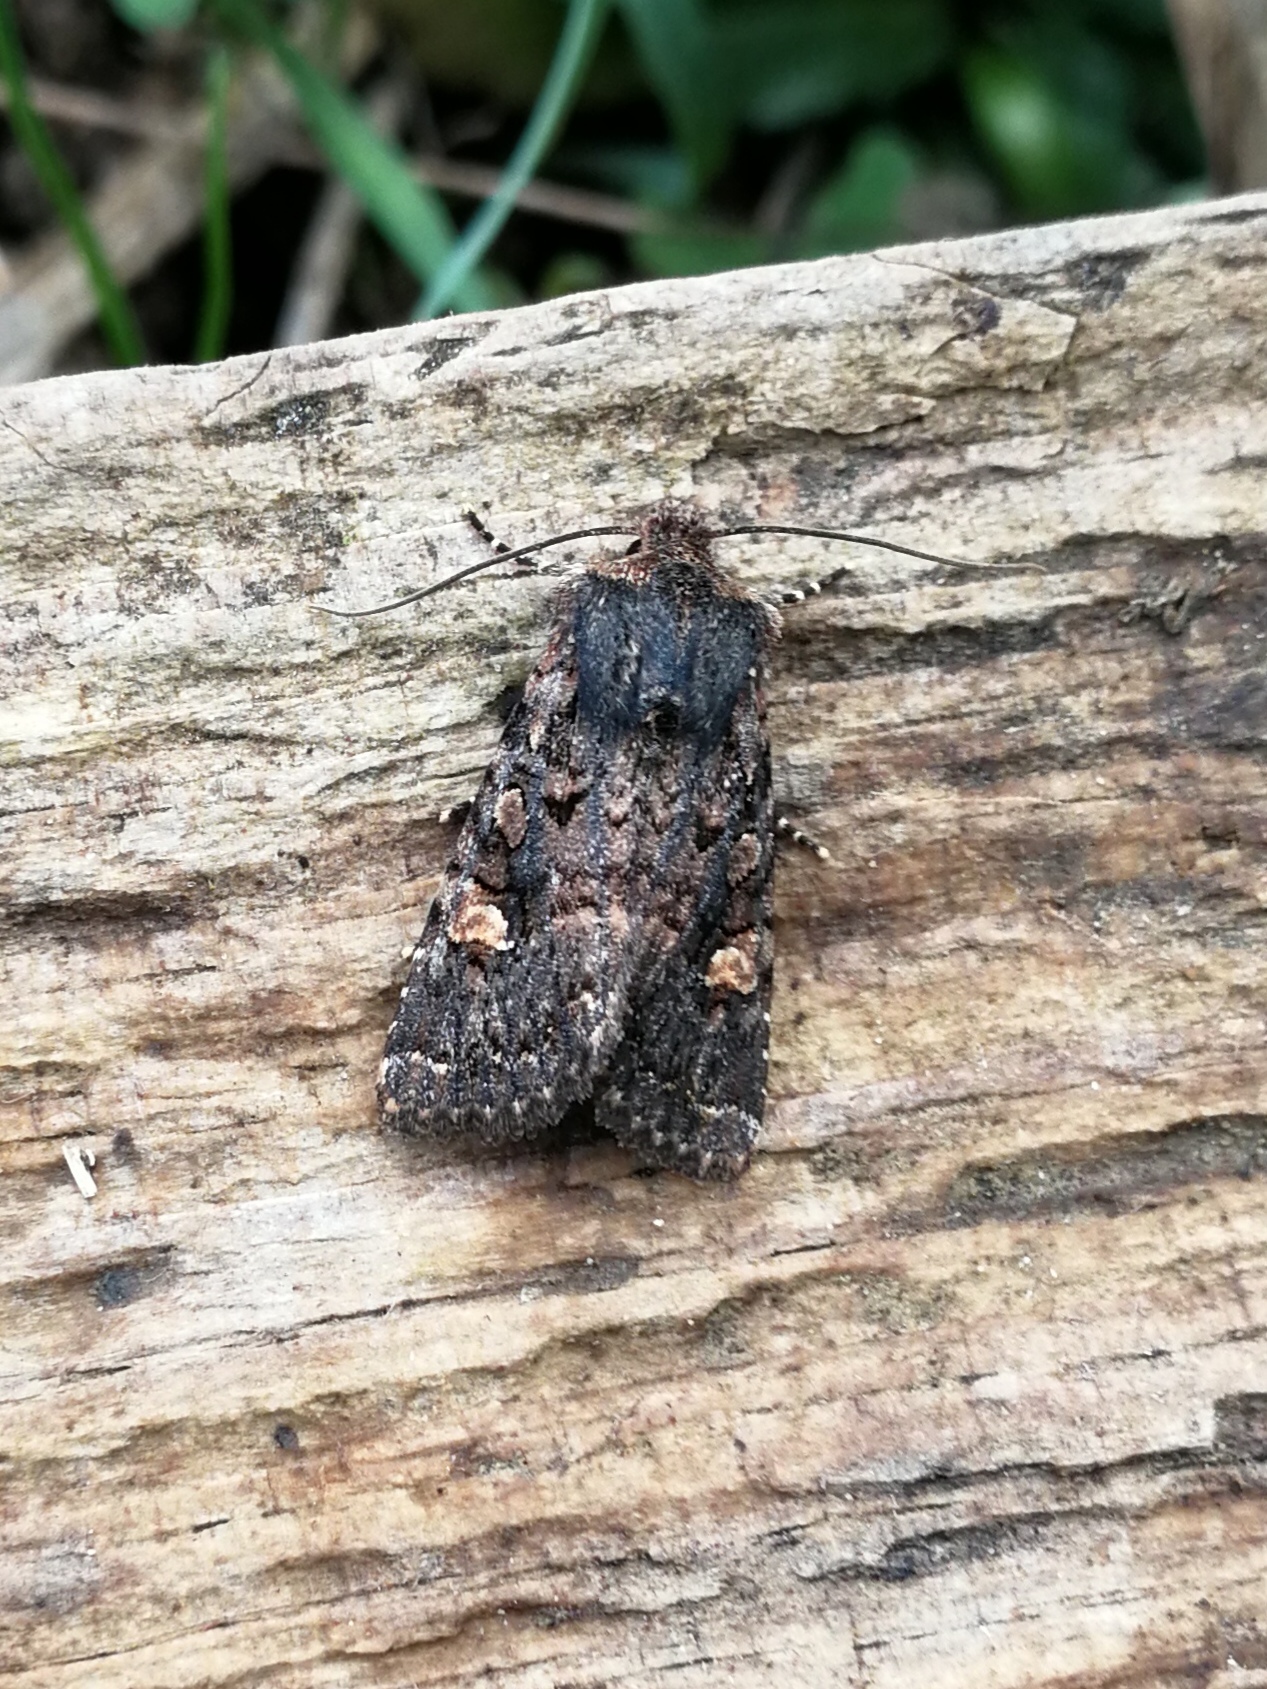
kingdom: Animalia
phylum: Arthropoda
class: Insecta
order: Lepidoptera
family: Noctuidae
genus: Dryobota
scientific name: Dryobota labecula
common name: Oak rustic
